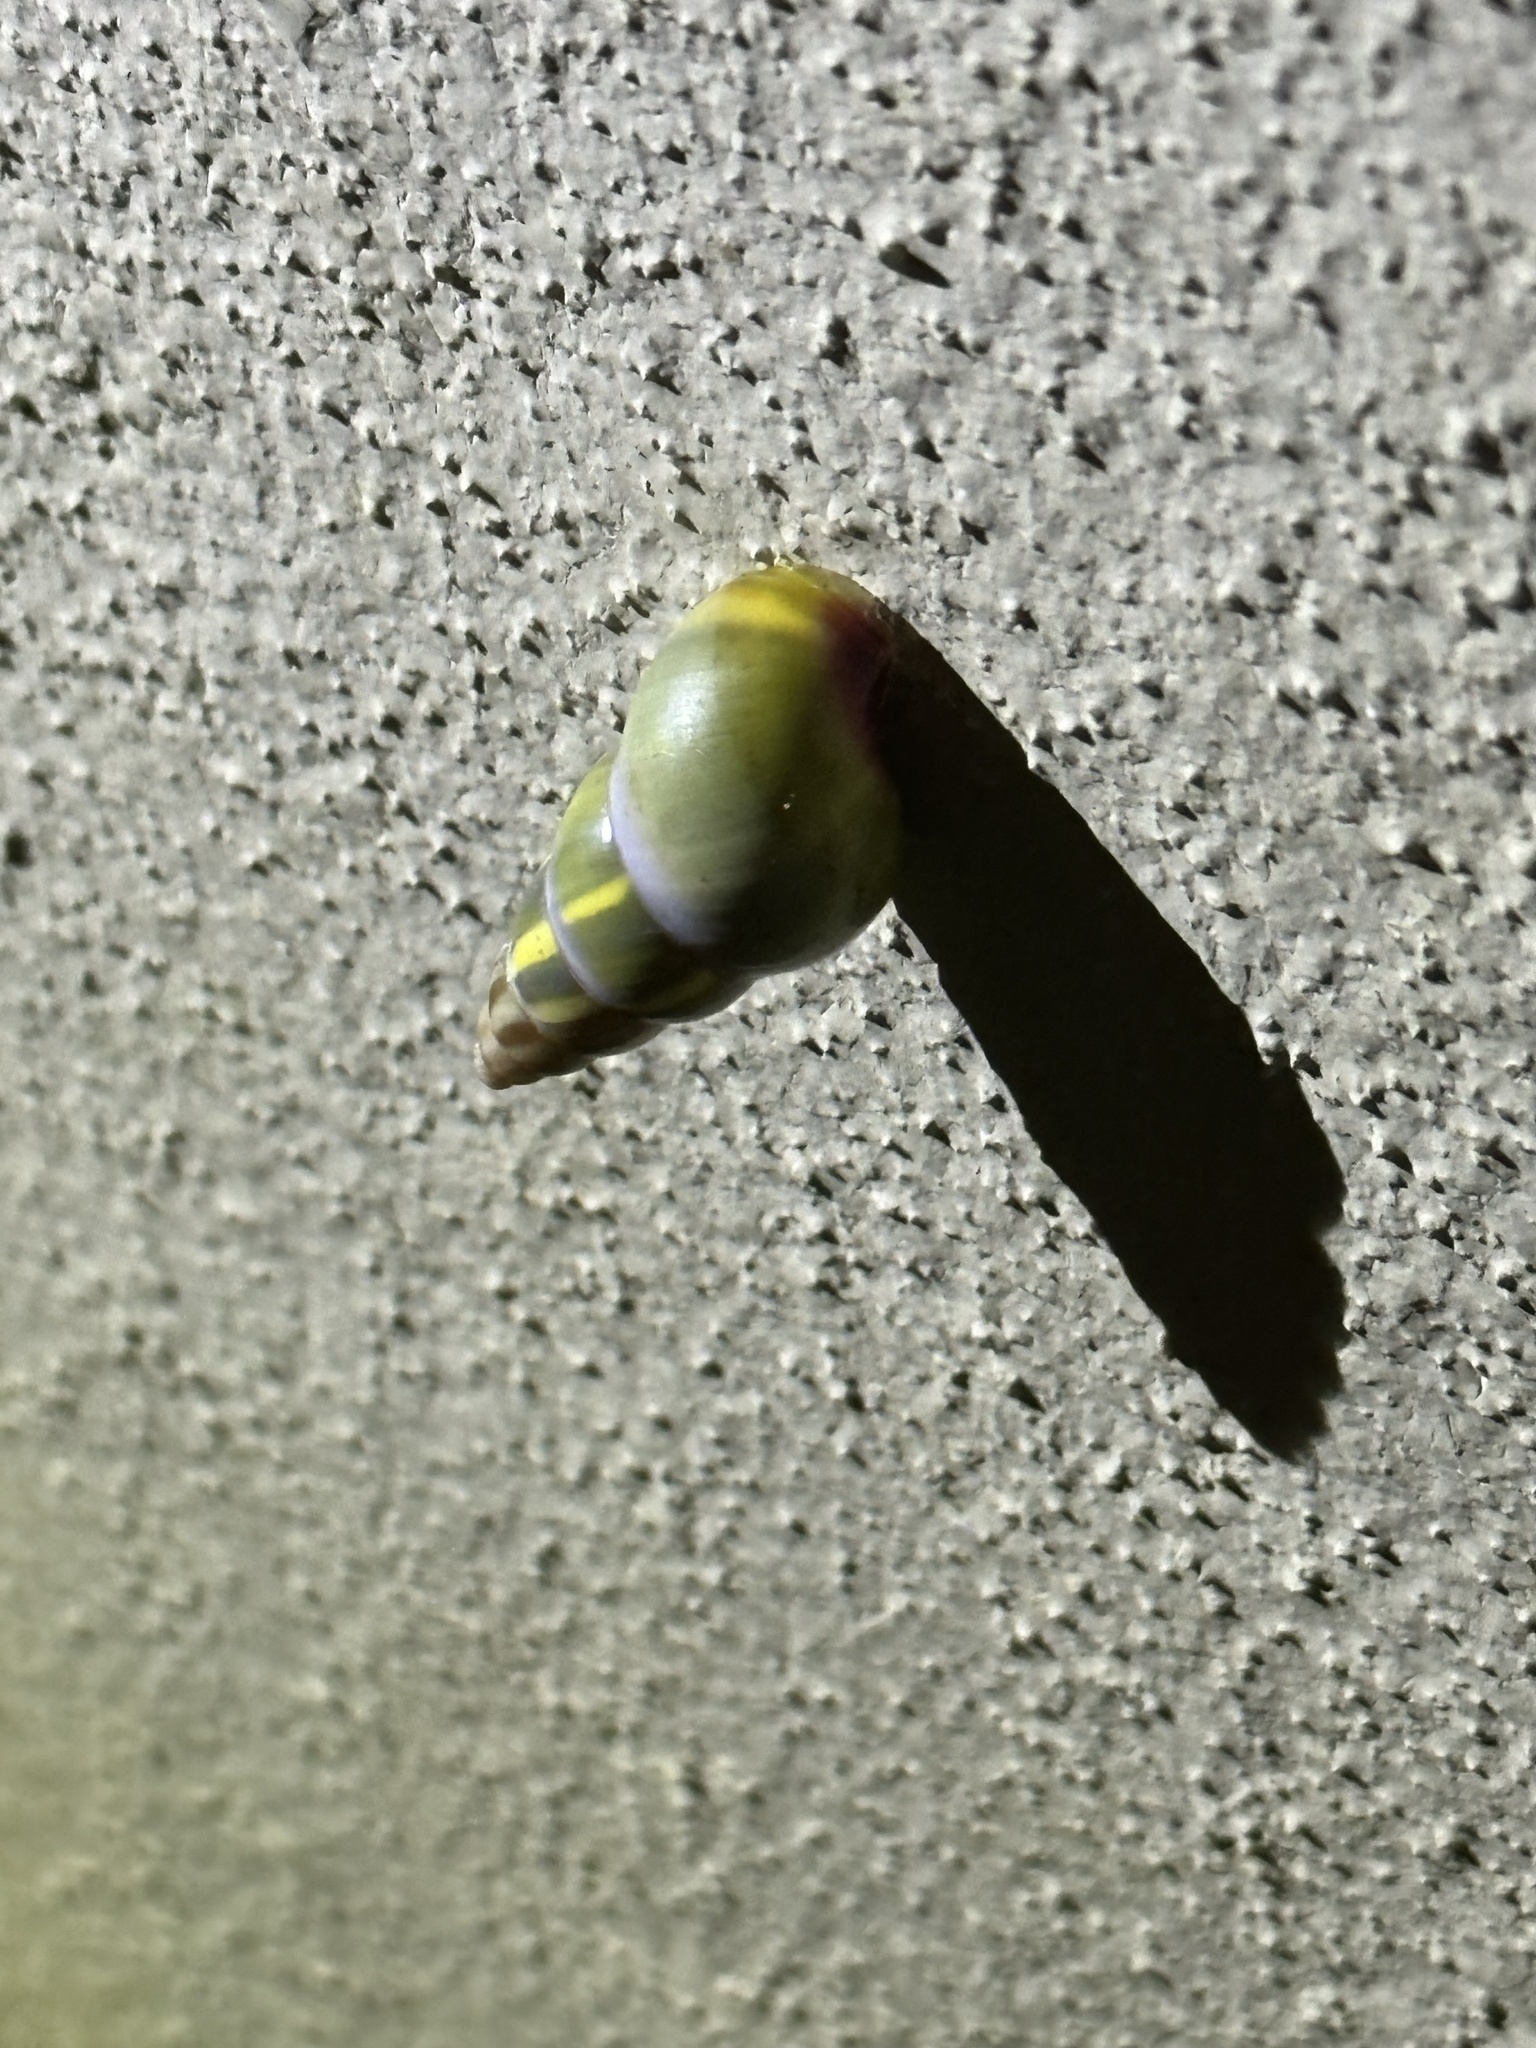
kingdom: Animalia
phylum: Mollusca
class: Gastropoda
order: Stylommatophora
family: Camaenidae
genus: Amphidromus
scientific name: Amphidromus perversus
